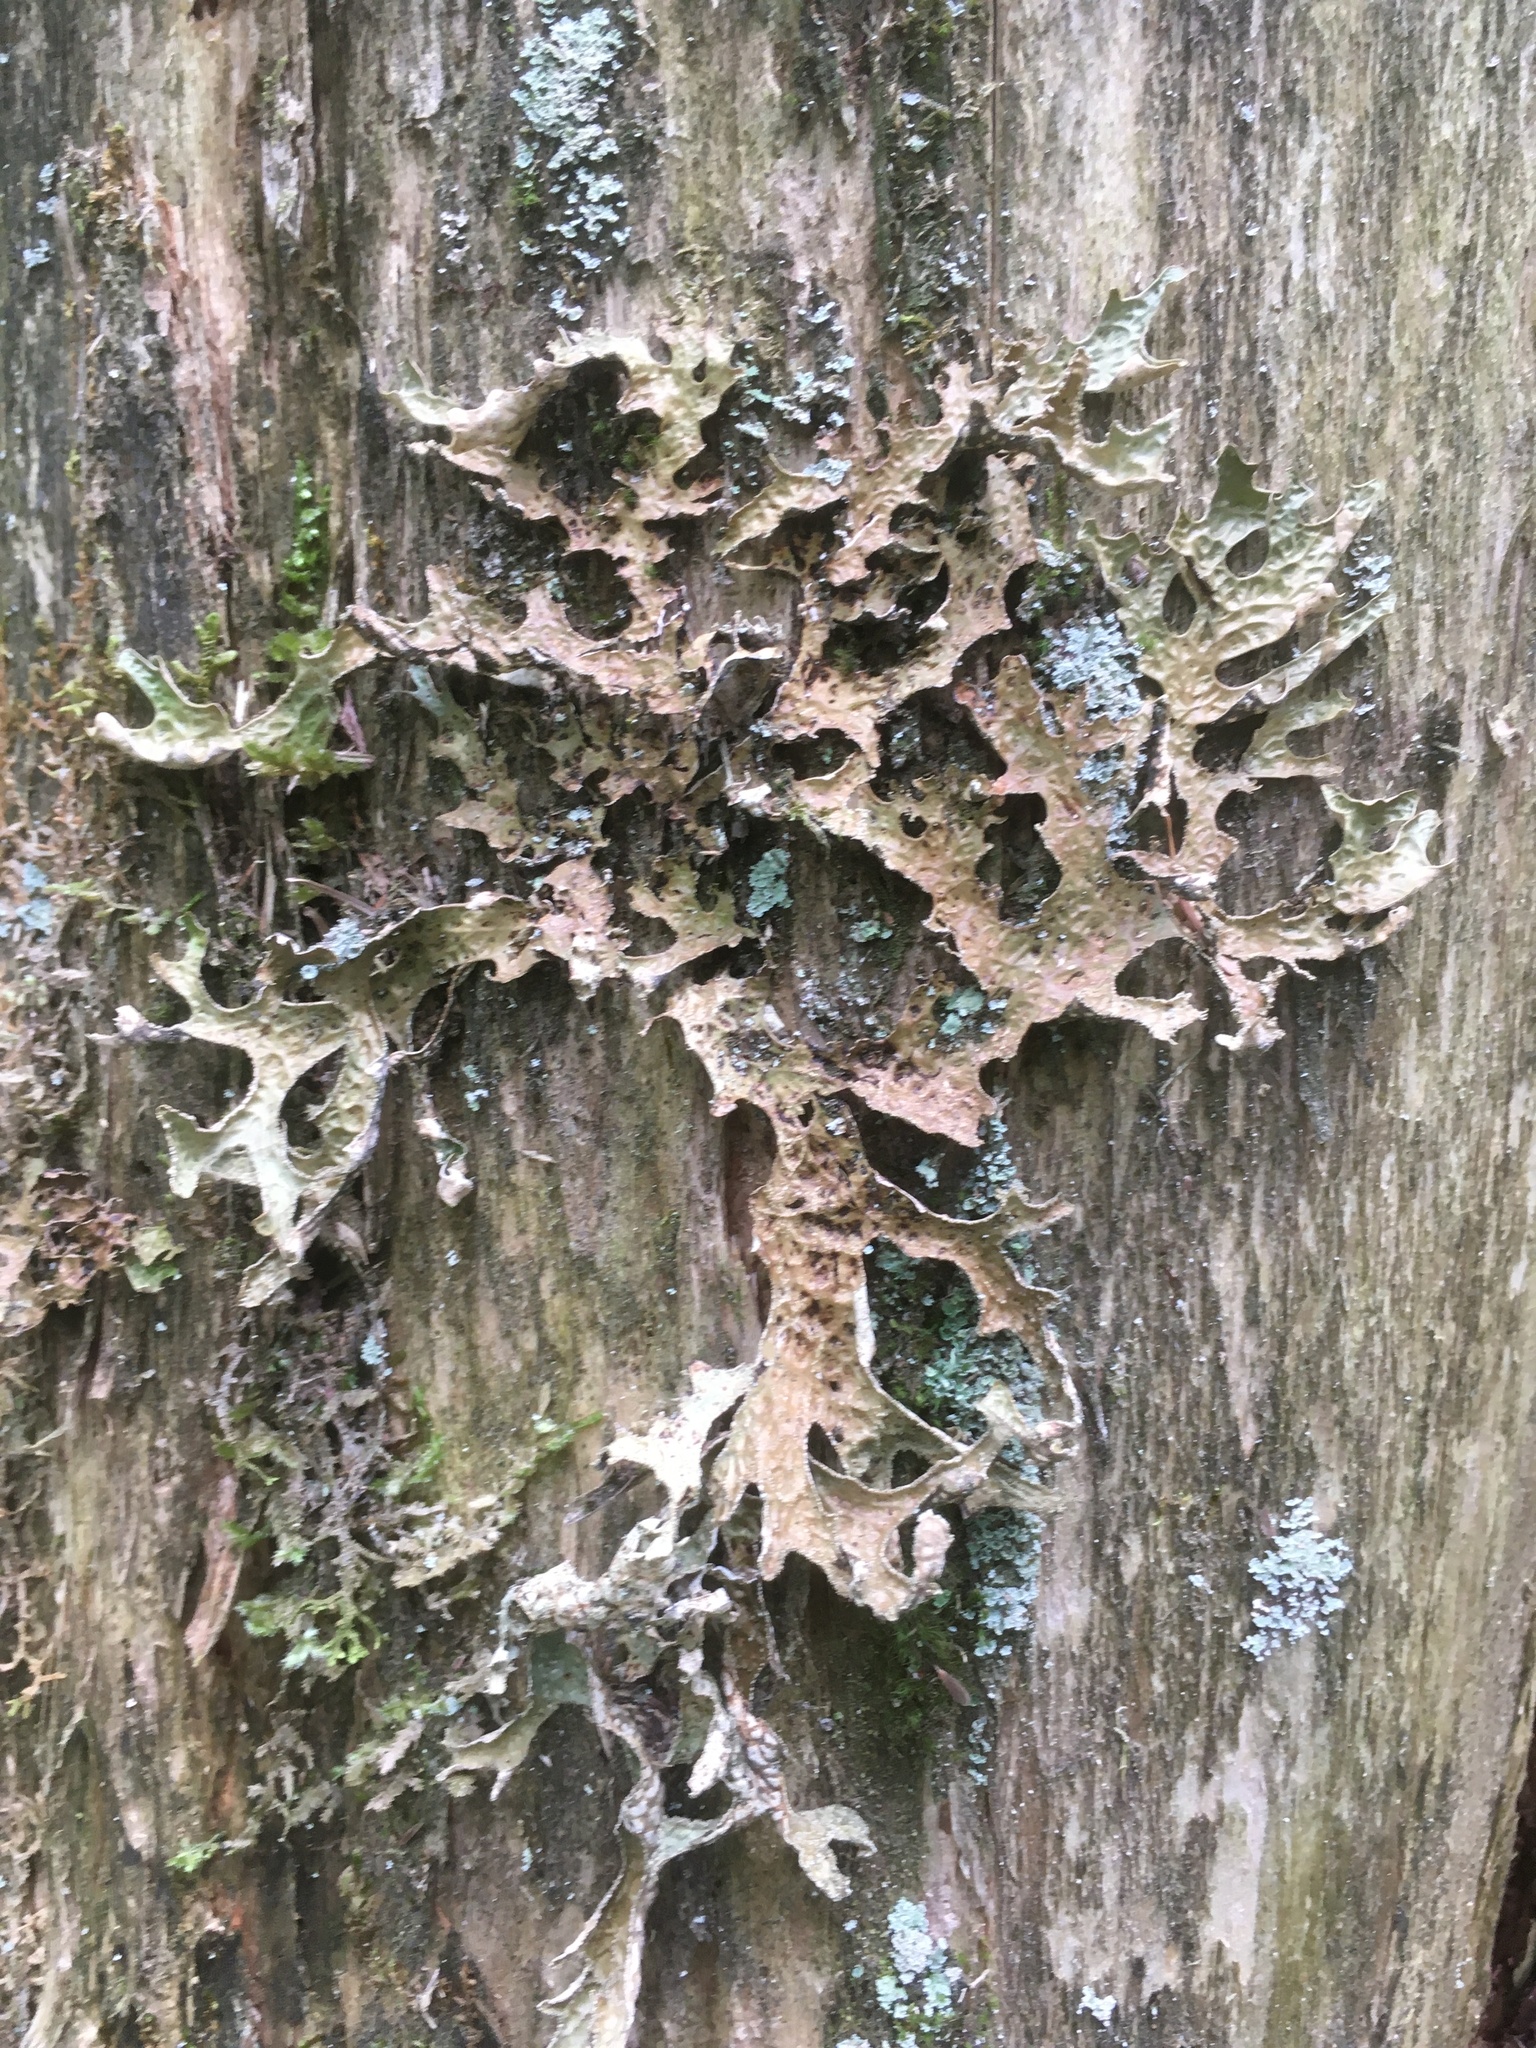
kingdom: Fungi
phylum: Ascomycota
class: Lecanoromycetes
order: Peltigerales
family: Lobariaceae
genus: Lobaria
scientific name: Lobaria pulmonaria
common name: Lungwort
